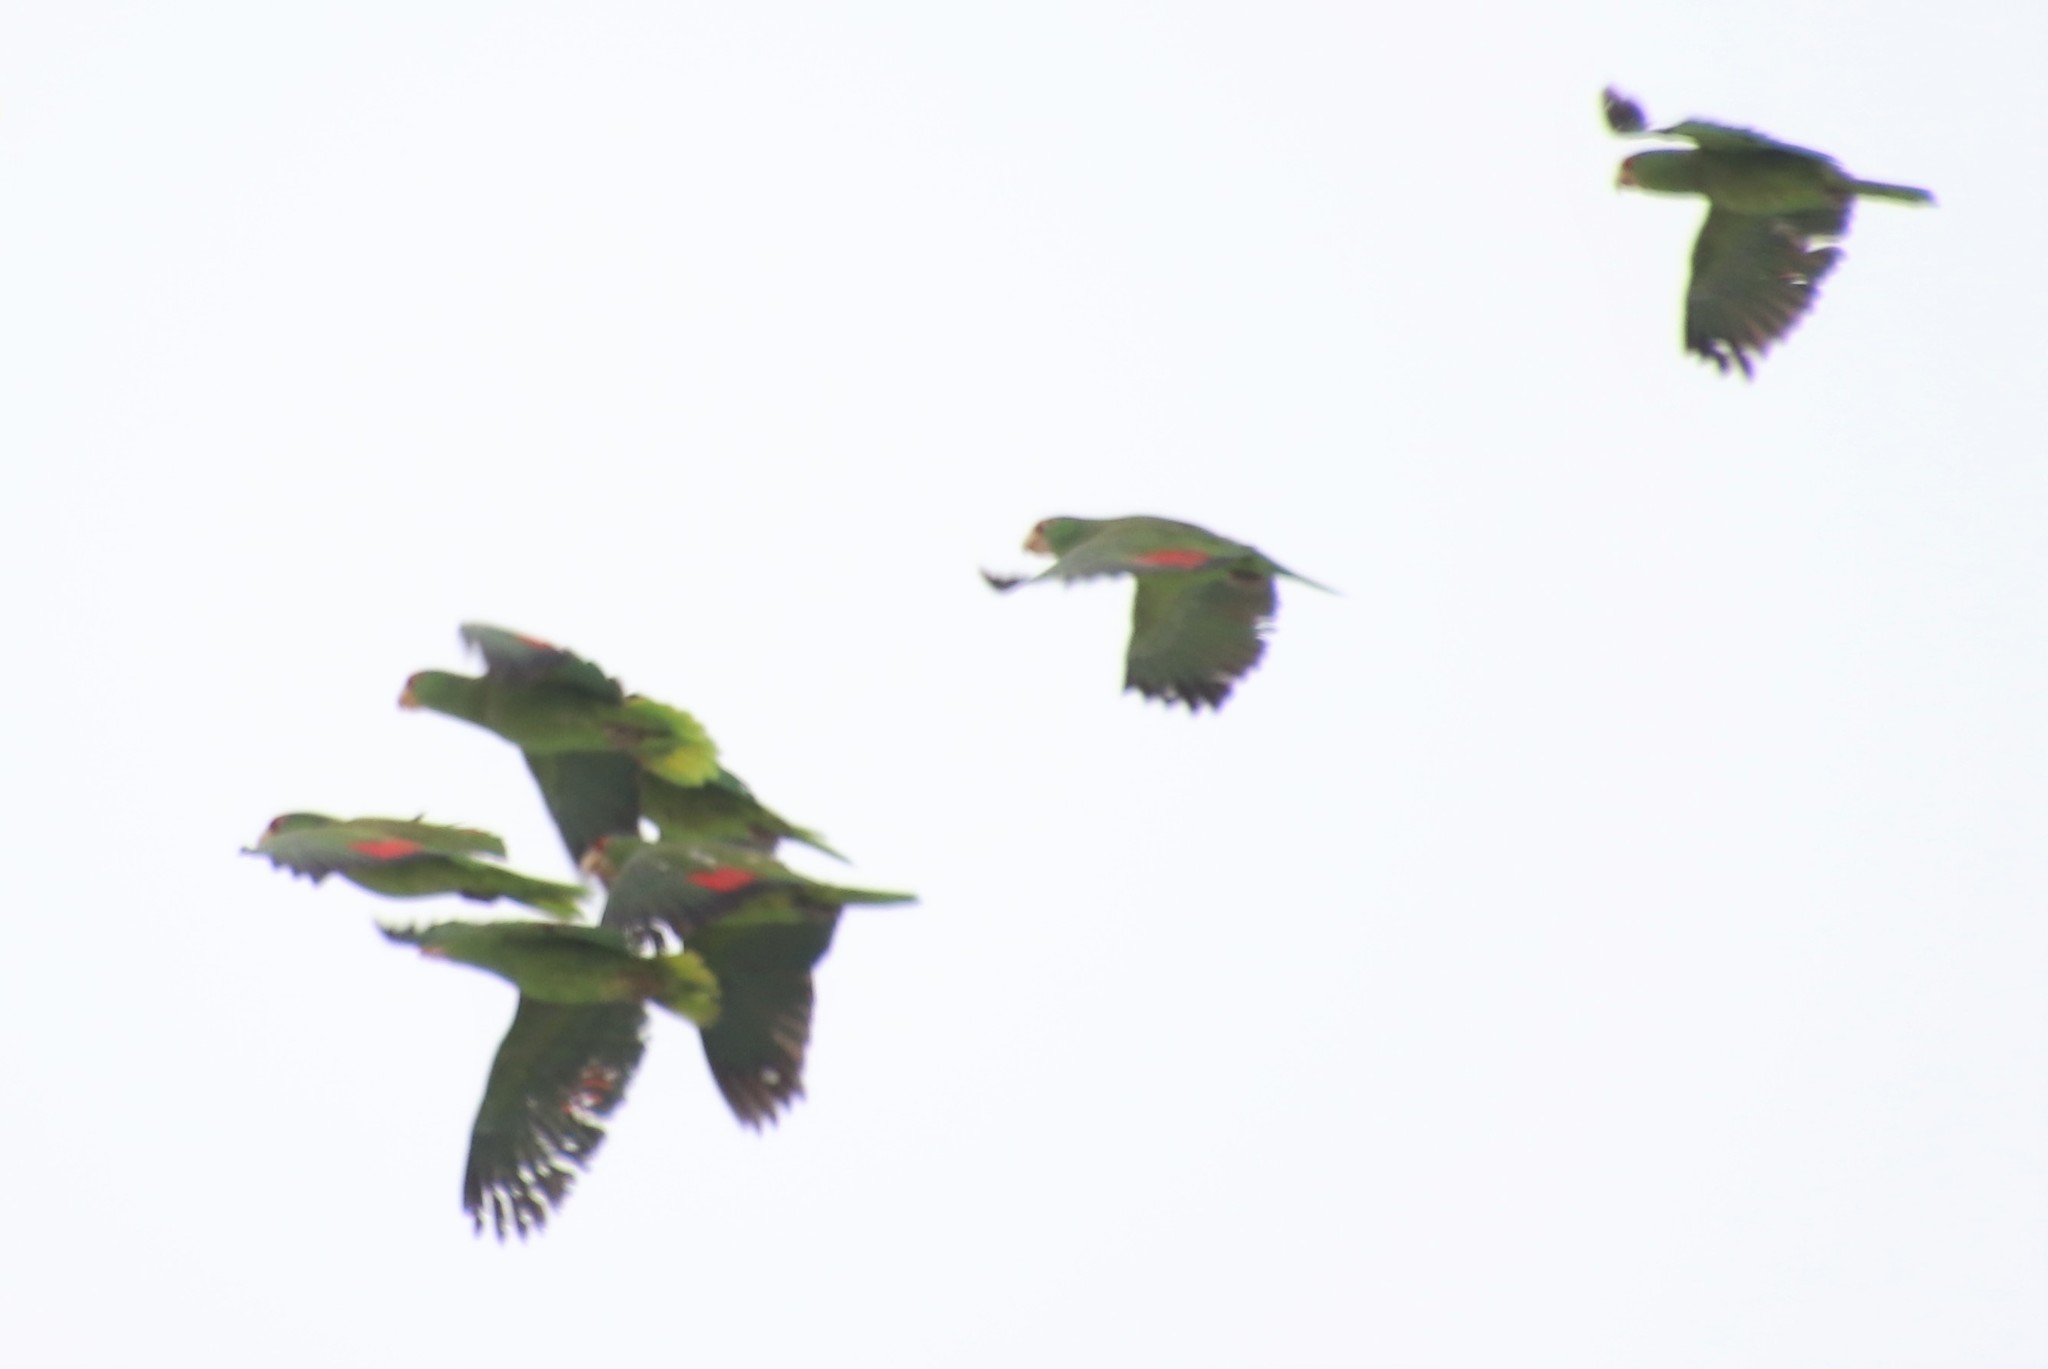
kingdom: Animalia
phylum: Chordata
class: Aves
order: Psittaciformes
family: Psittacidae
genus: Amazona
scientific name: Amazona finschi
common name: Lilac-crowned amazon
